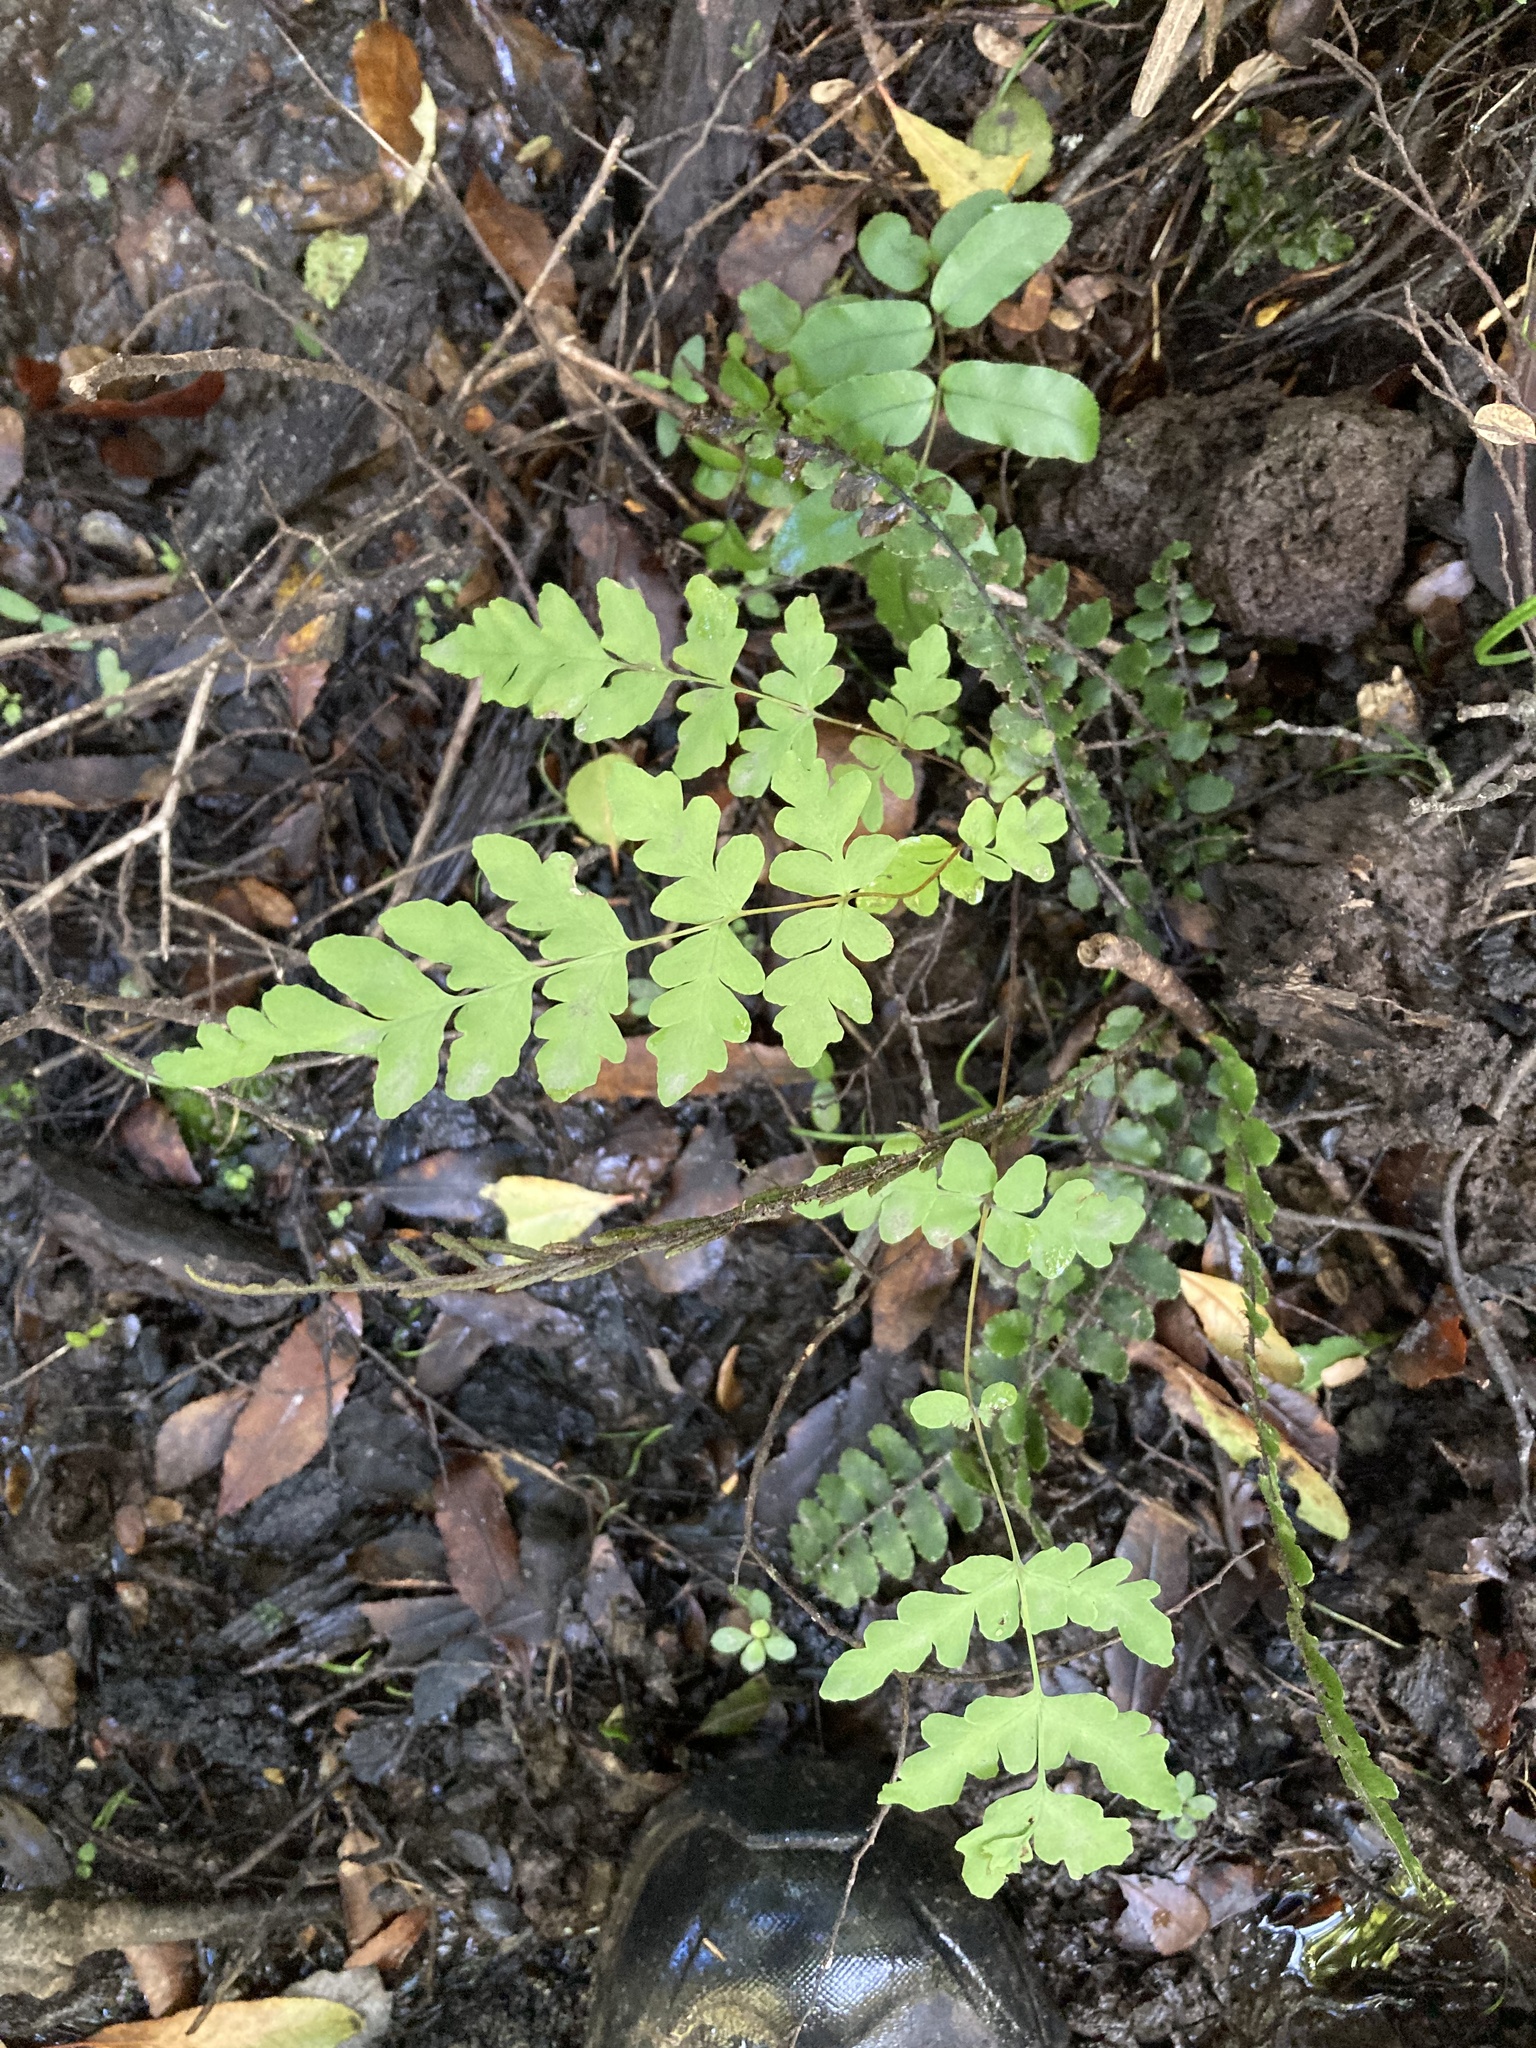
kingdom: Plantae
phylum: Tracheophyta
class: Polypodiopsida
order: Polypodiales
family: Dennstaedtiaceae
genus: Histiopteris
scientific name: Histiopteris incisa
